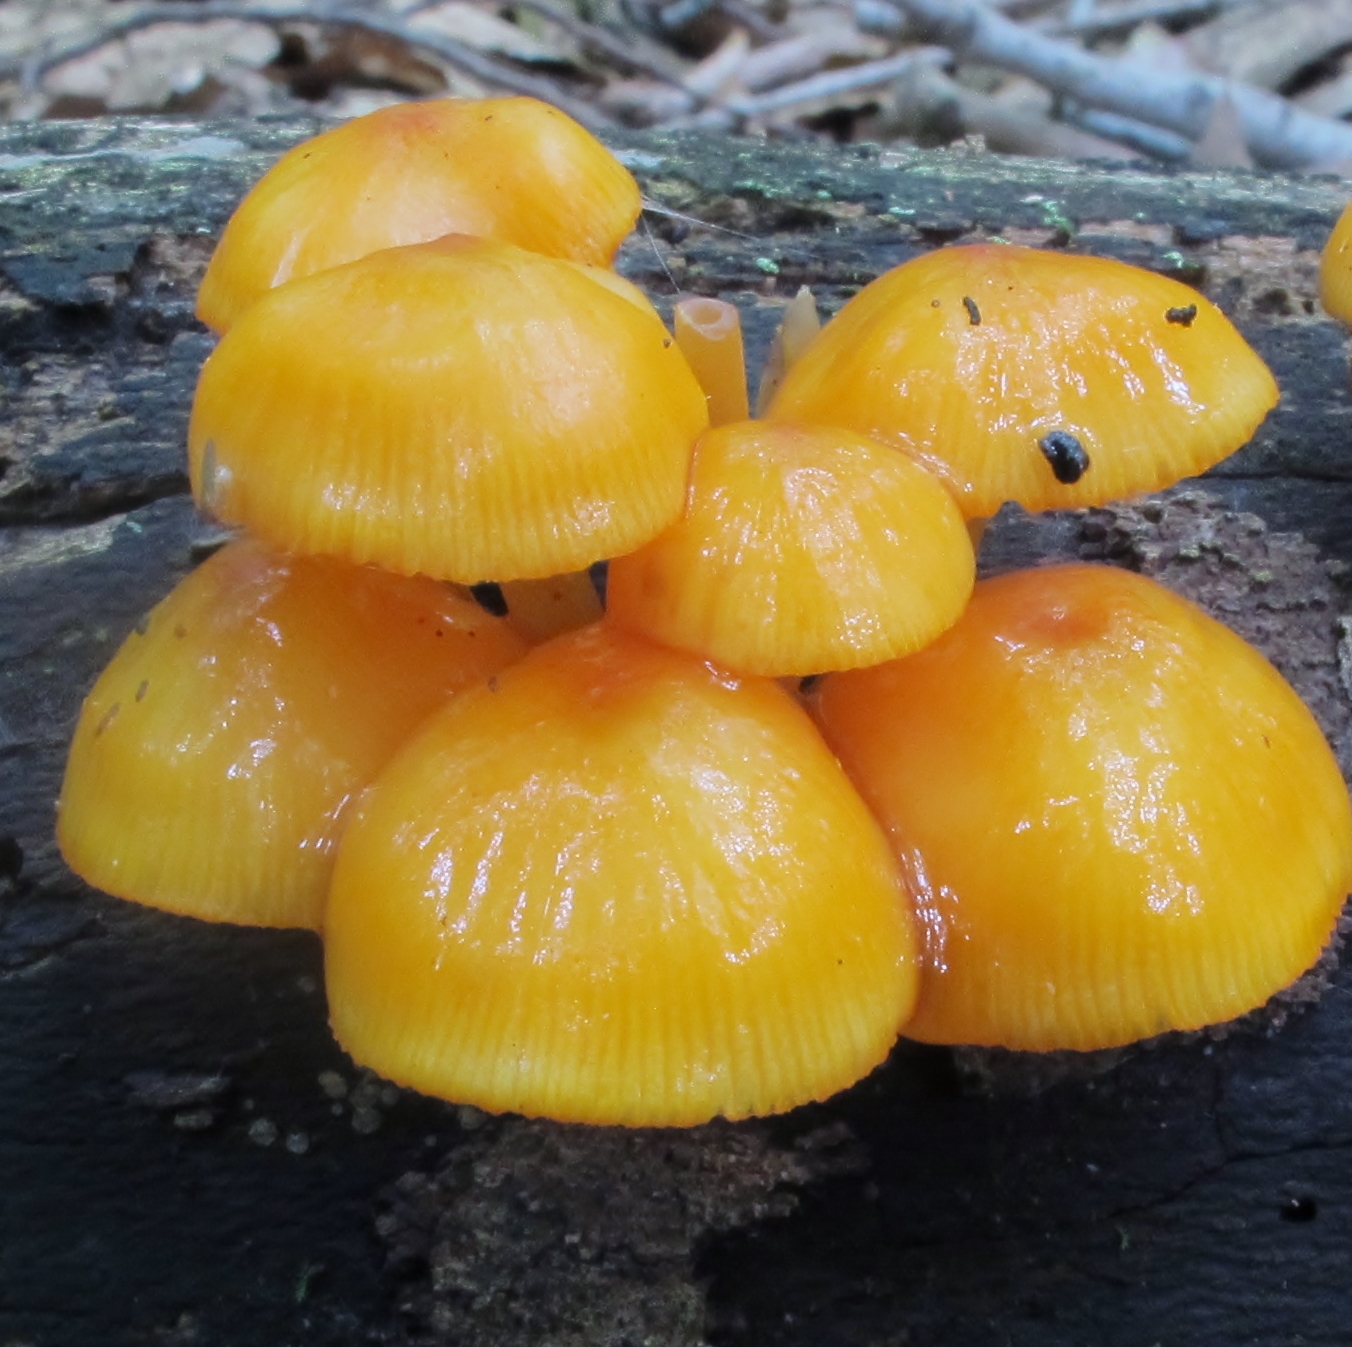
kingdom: Fungi
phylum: Basidiomycota
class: Agaricomycetes
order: Agaricales
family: Mycenaceae
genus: Mycena
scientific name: Mycena leaiana
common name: Orange mycena
